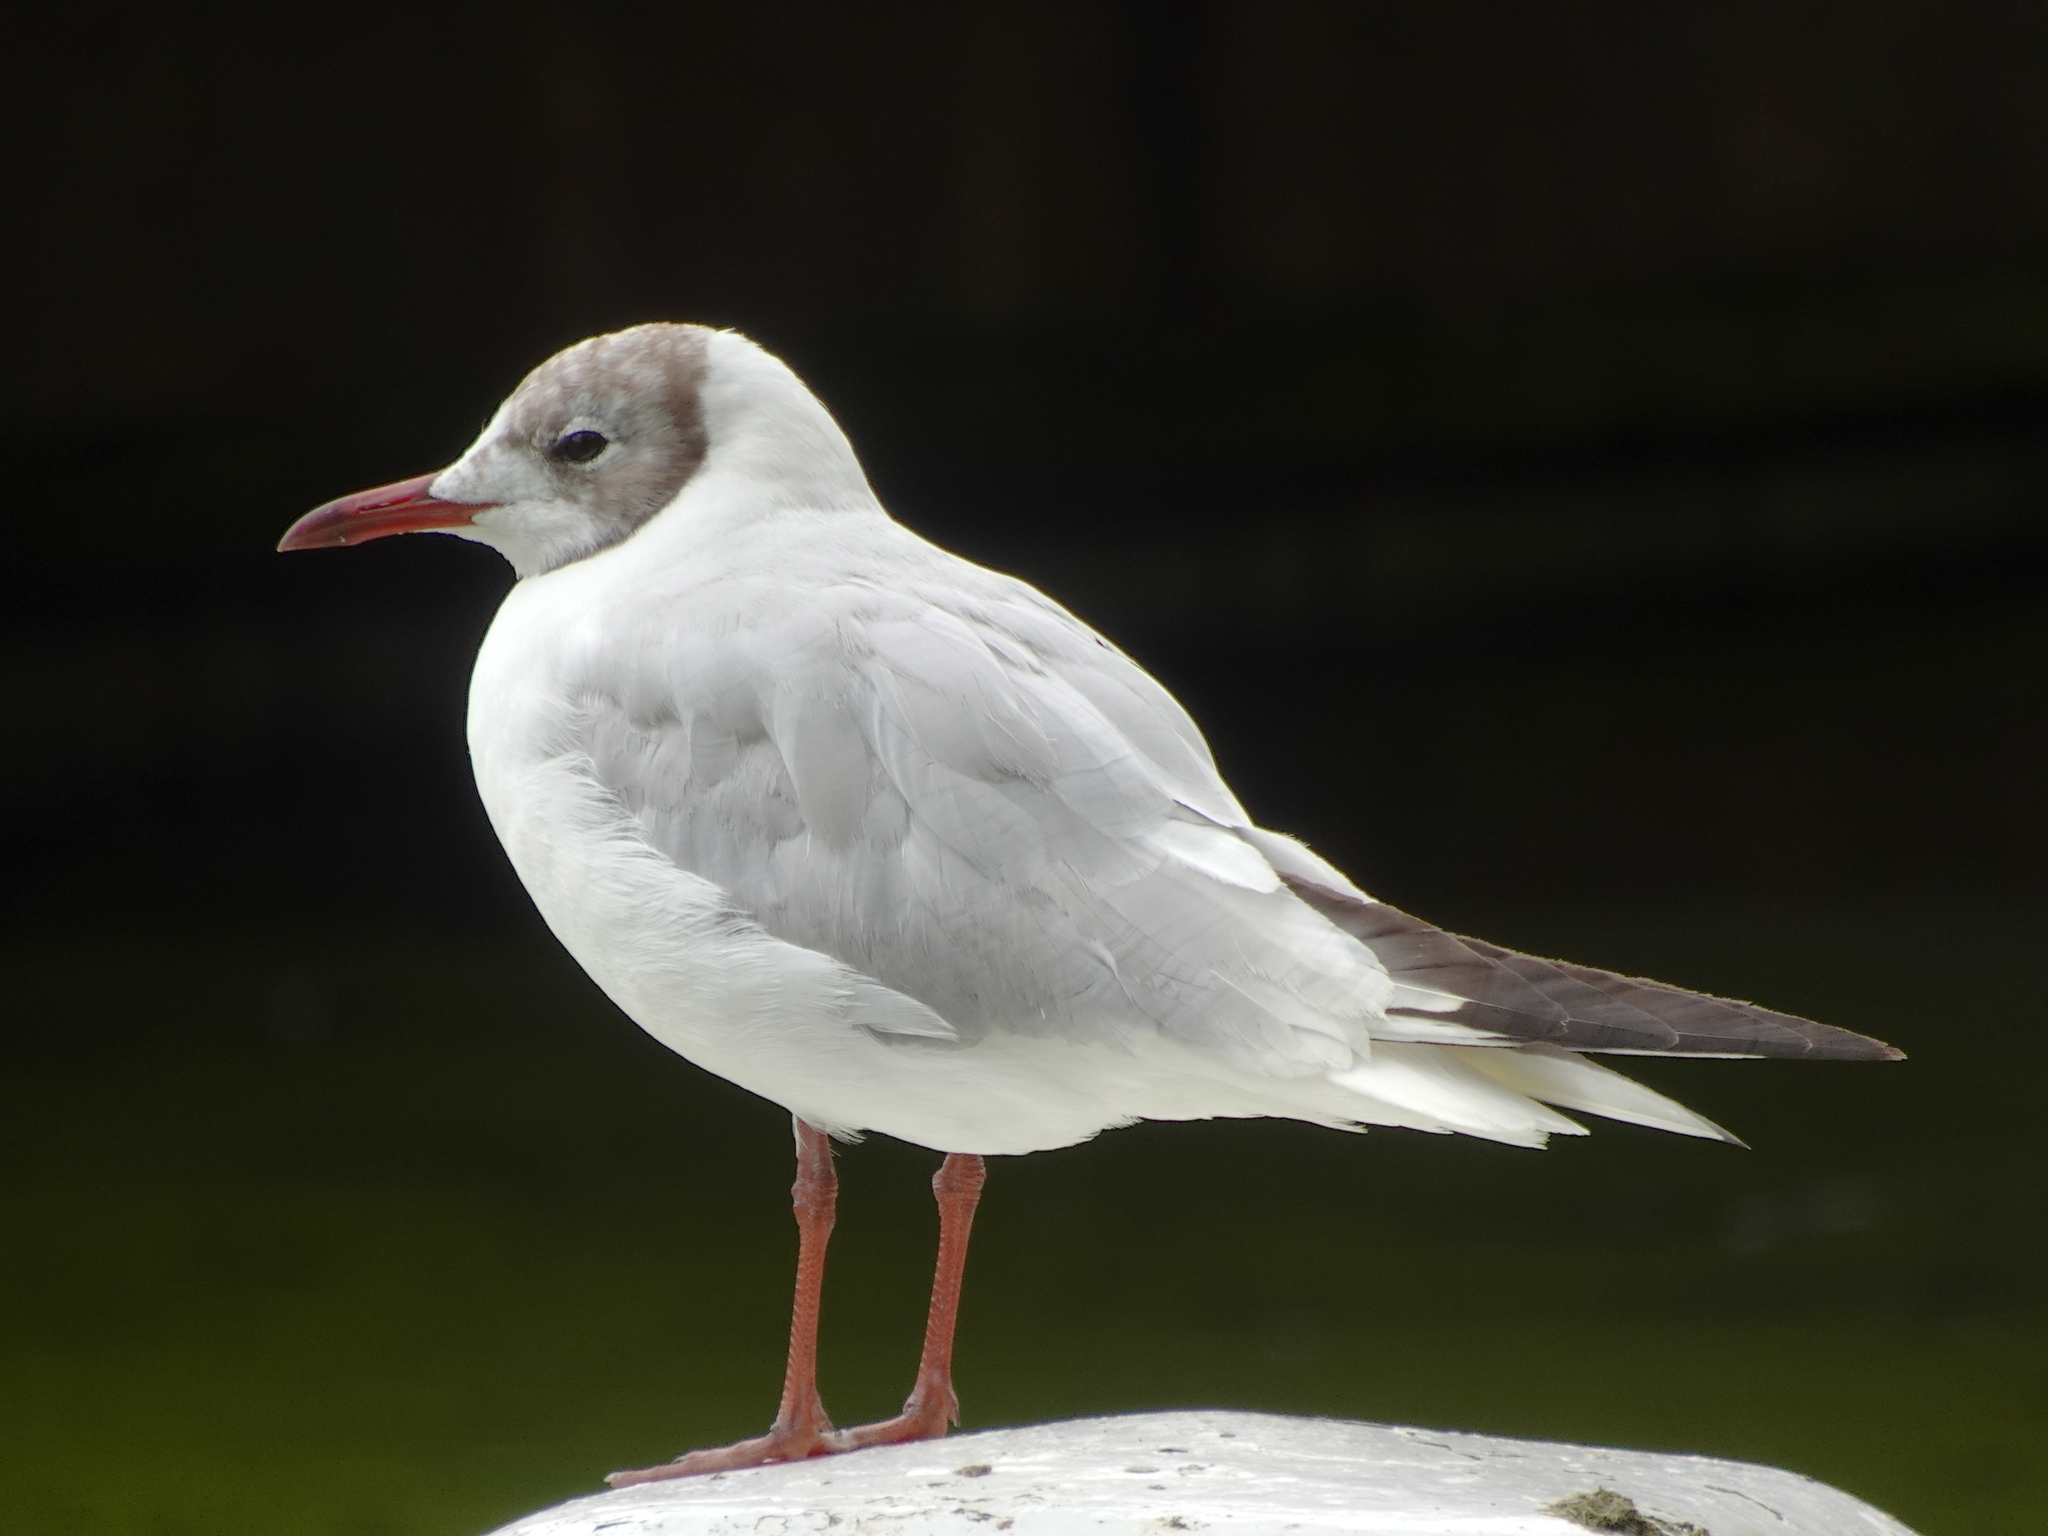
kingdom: Animalia
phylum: Chordata
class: Aves
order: Charadriiformes
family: Laridae
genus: Chroicocephalus
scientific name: Chroicocephalus ridibundus
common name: Black-headed gull
